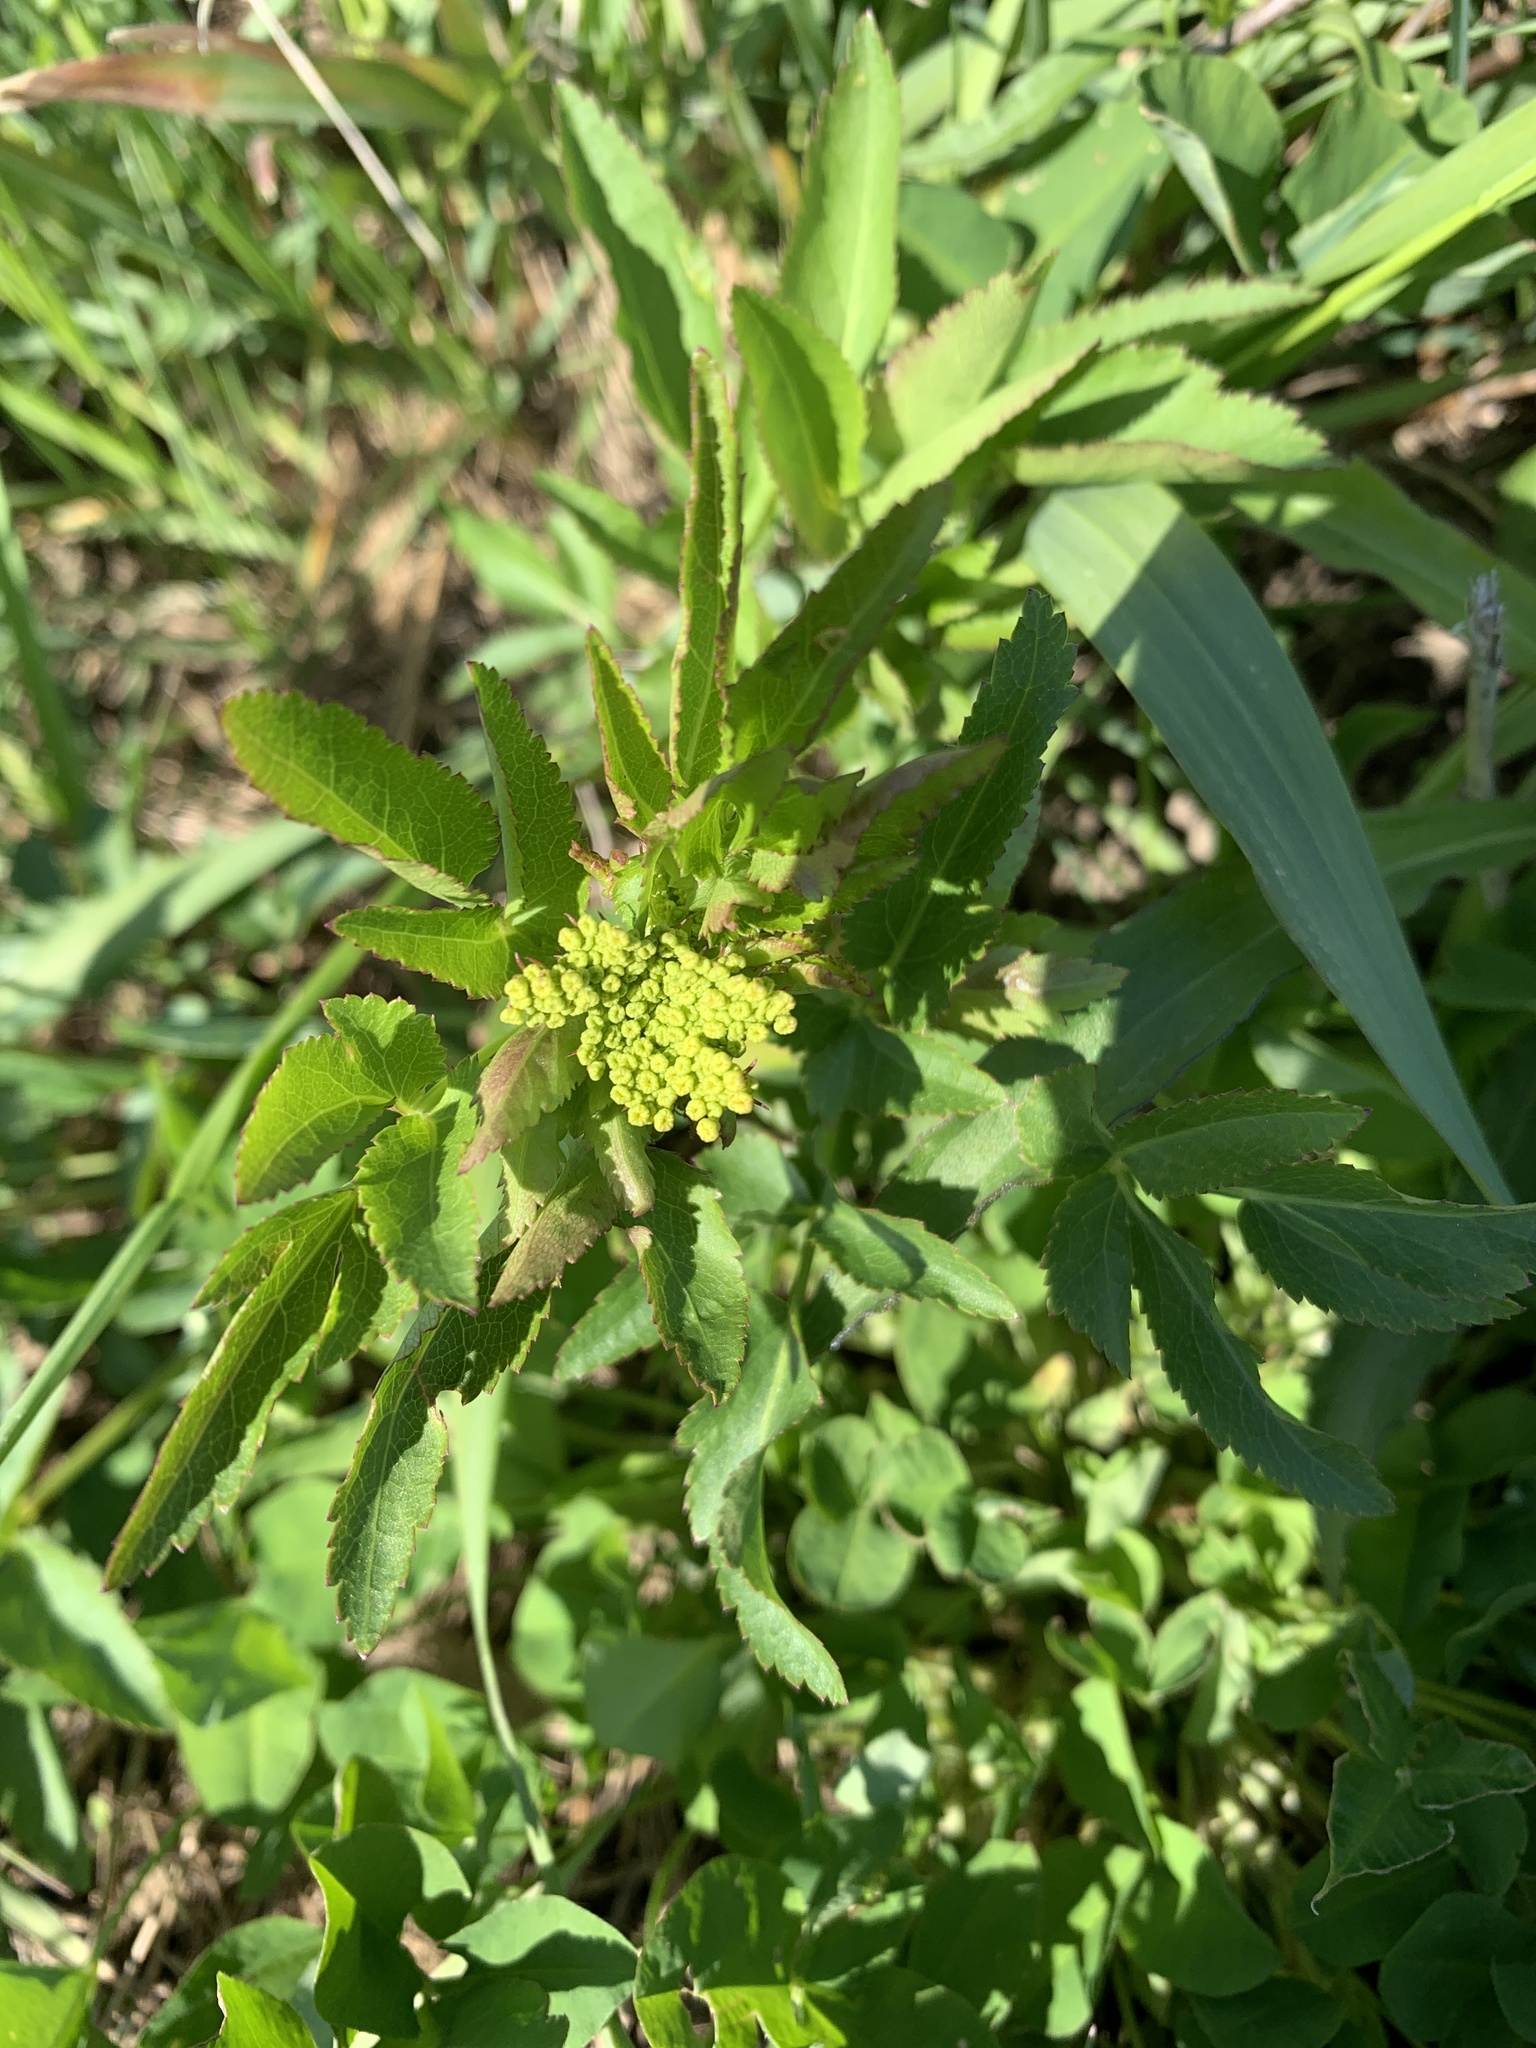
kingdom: Plantae
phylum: Tracheophyta
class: Magnoliopsida
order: Apiales
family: Apiaceae
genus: Zizia
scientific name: Zizia aurea
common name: Golden alexanders
